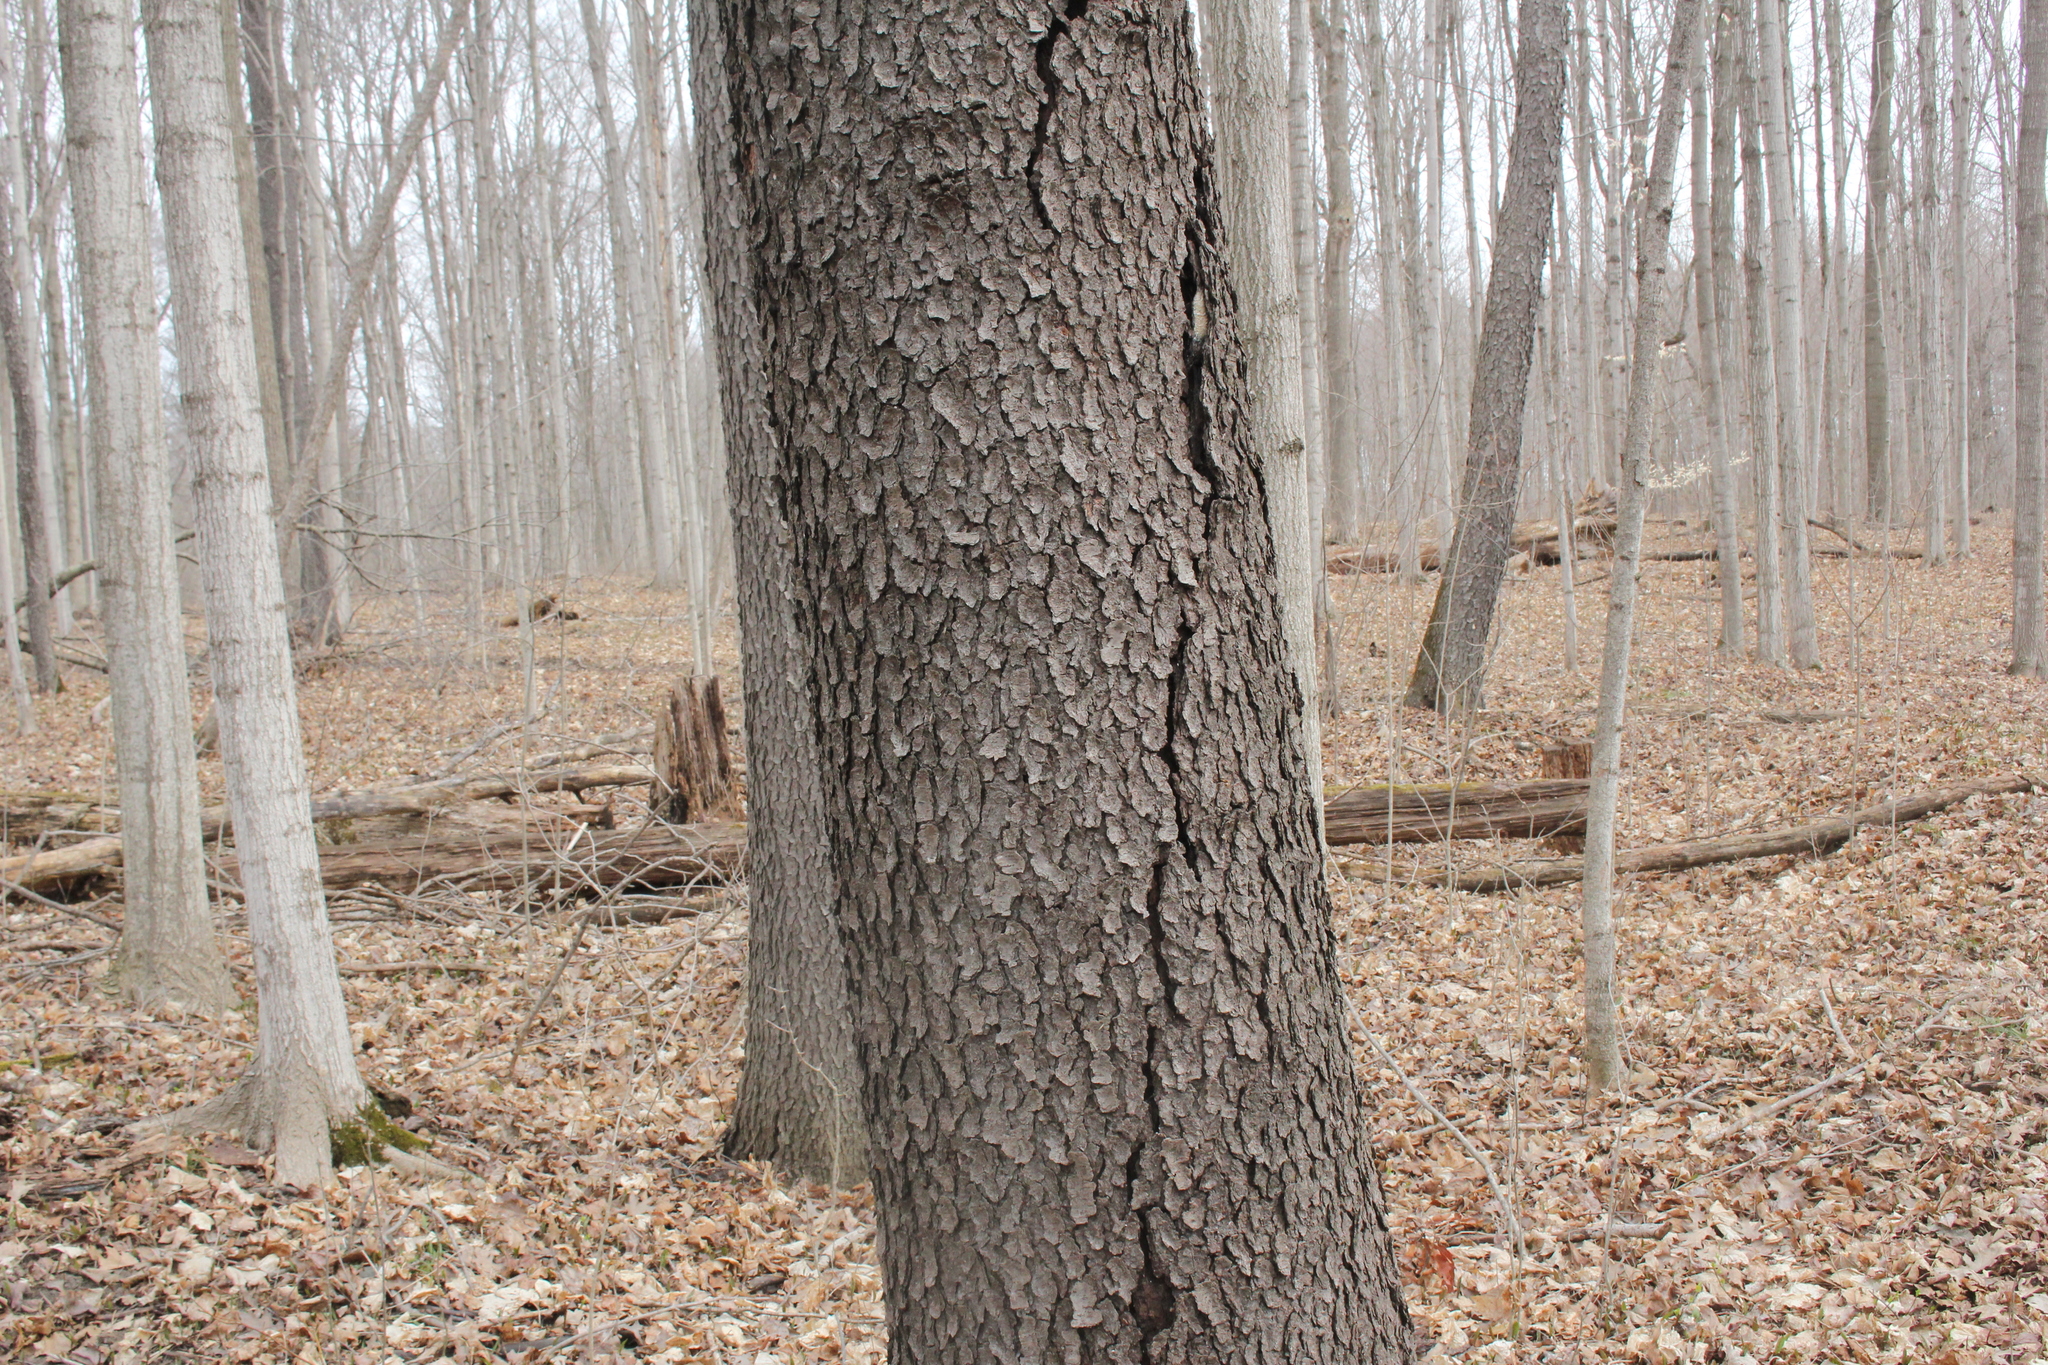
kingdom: Plantae
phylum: Tracheophyta
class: Magnoliopsida
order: Rosales
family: Rosaceae
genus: Prunus
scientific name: Prunus serotina
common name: Black cherry
